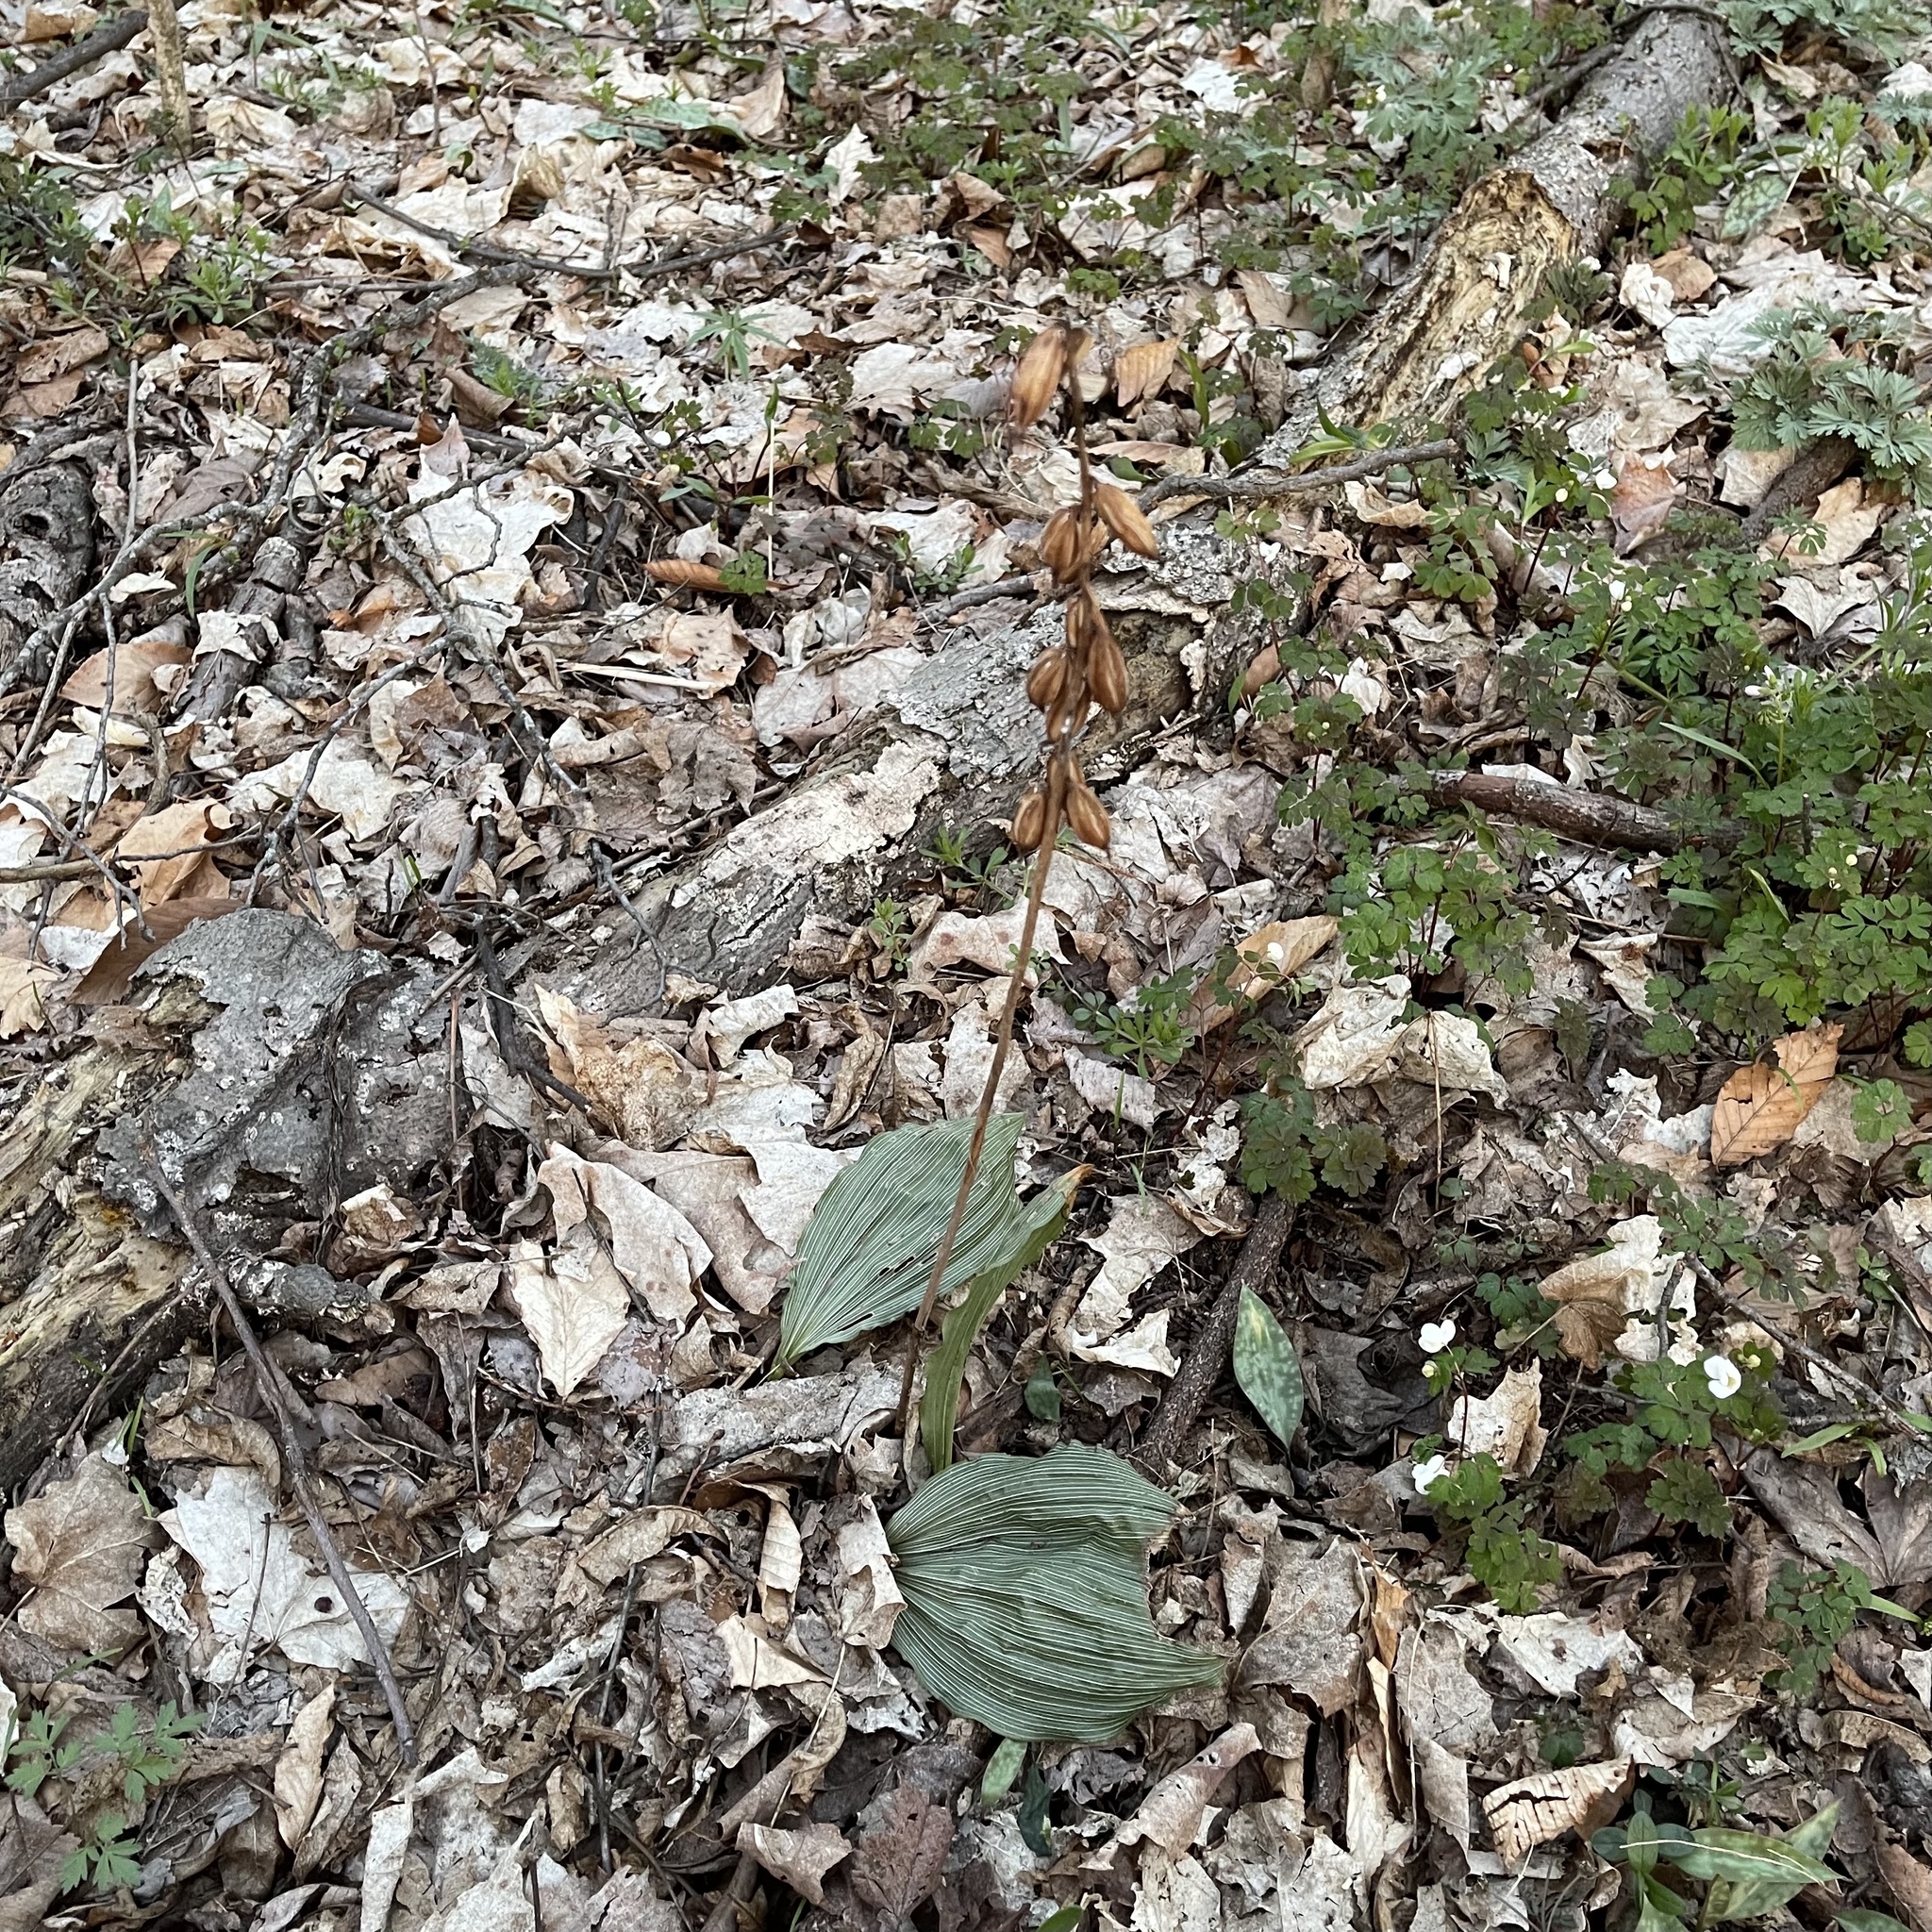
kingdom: Plantae
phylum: Tracheophyta
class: Liliopsida
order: Asparagales
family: Orchidaceae
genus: Aplectrum
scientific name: Aplectrum hyemale
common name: Adam-and-eve
